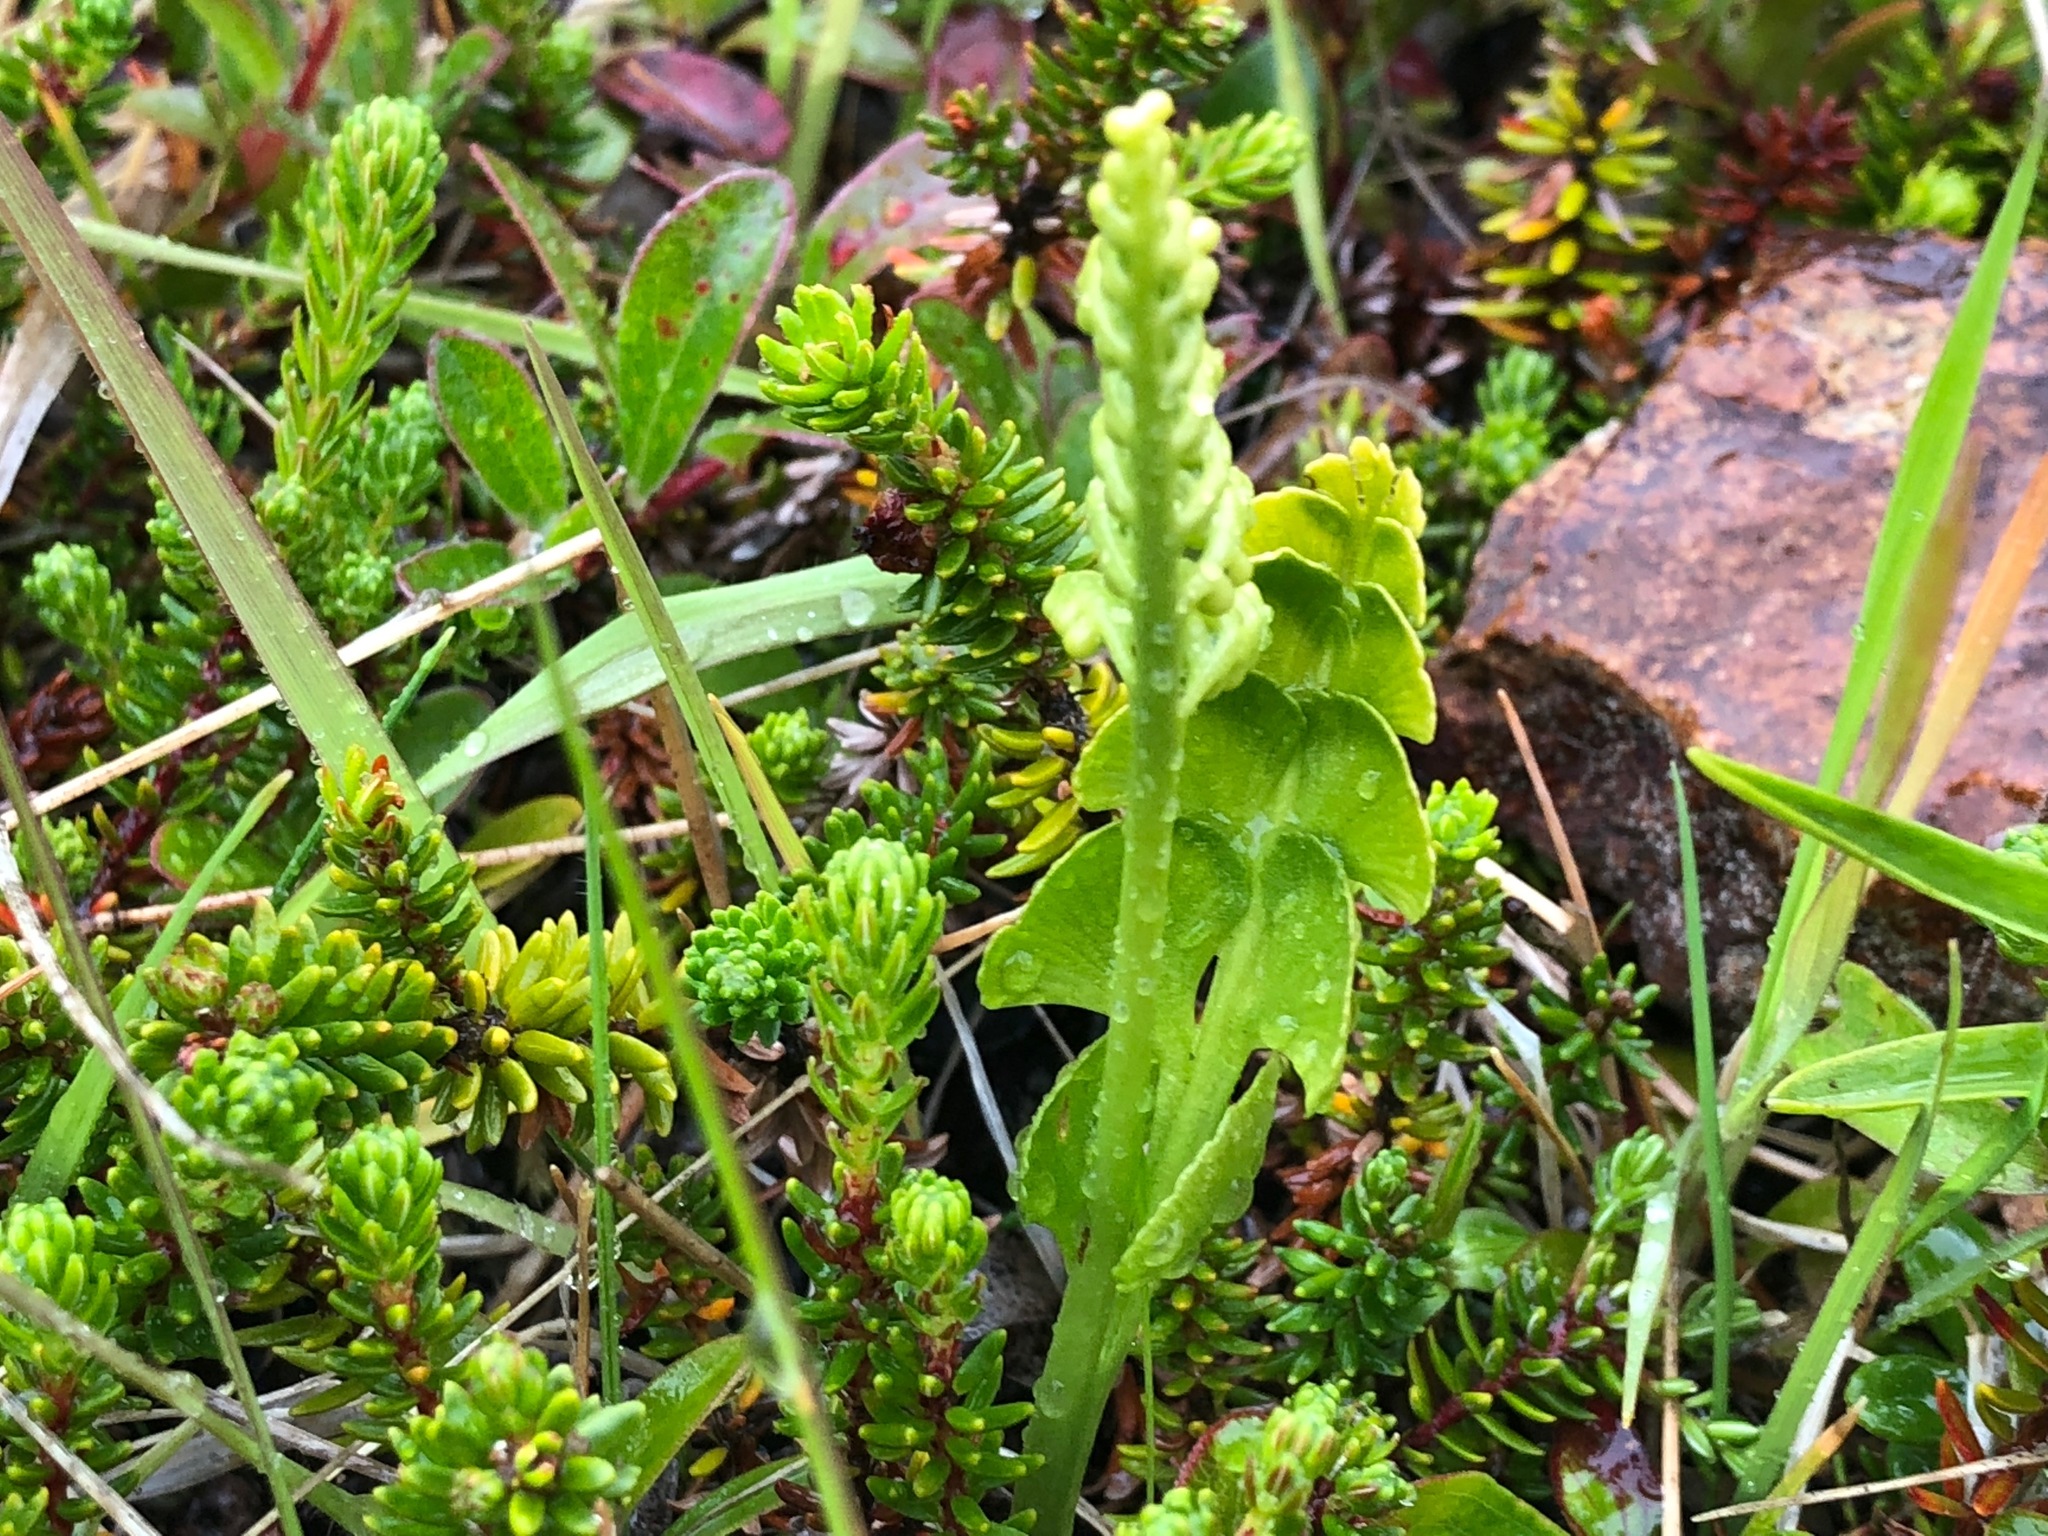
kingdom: Plantae
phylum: Tracheophyta
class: Polypodiopsida
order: Ophioglossales
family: Ophioglossaceae
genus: Botrychium
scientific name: Botrychium neolunaria
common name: New world moonwort
